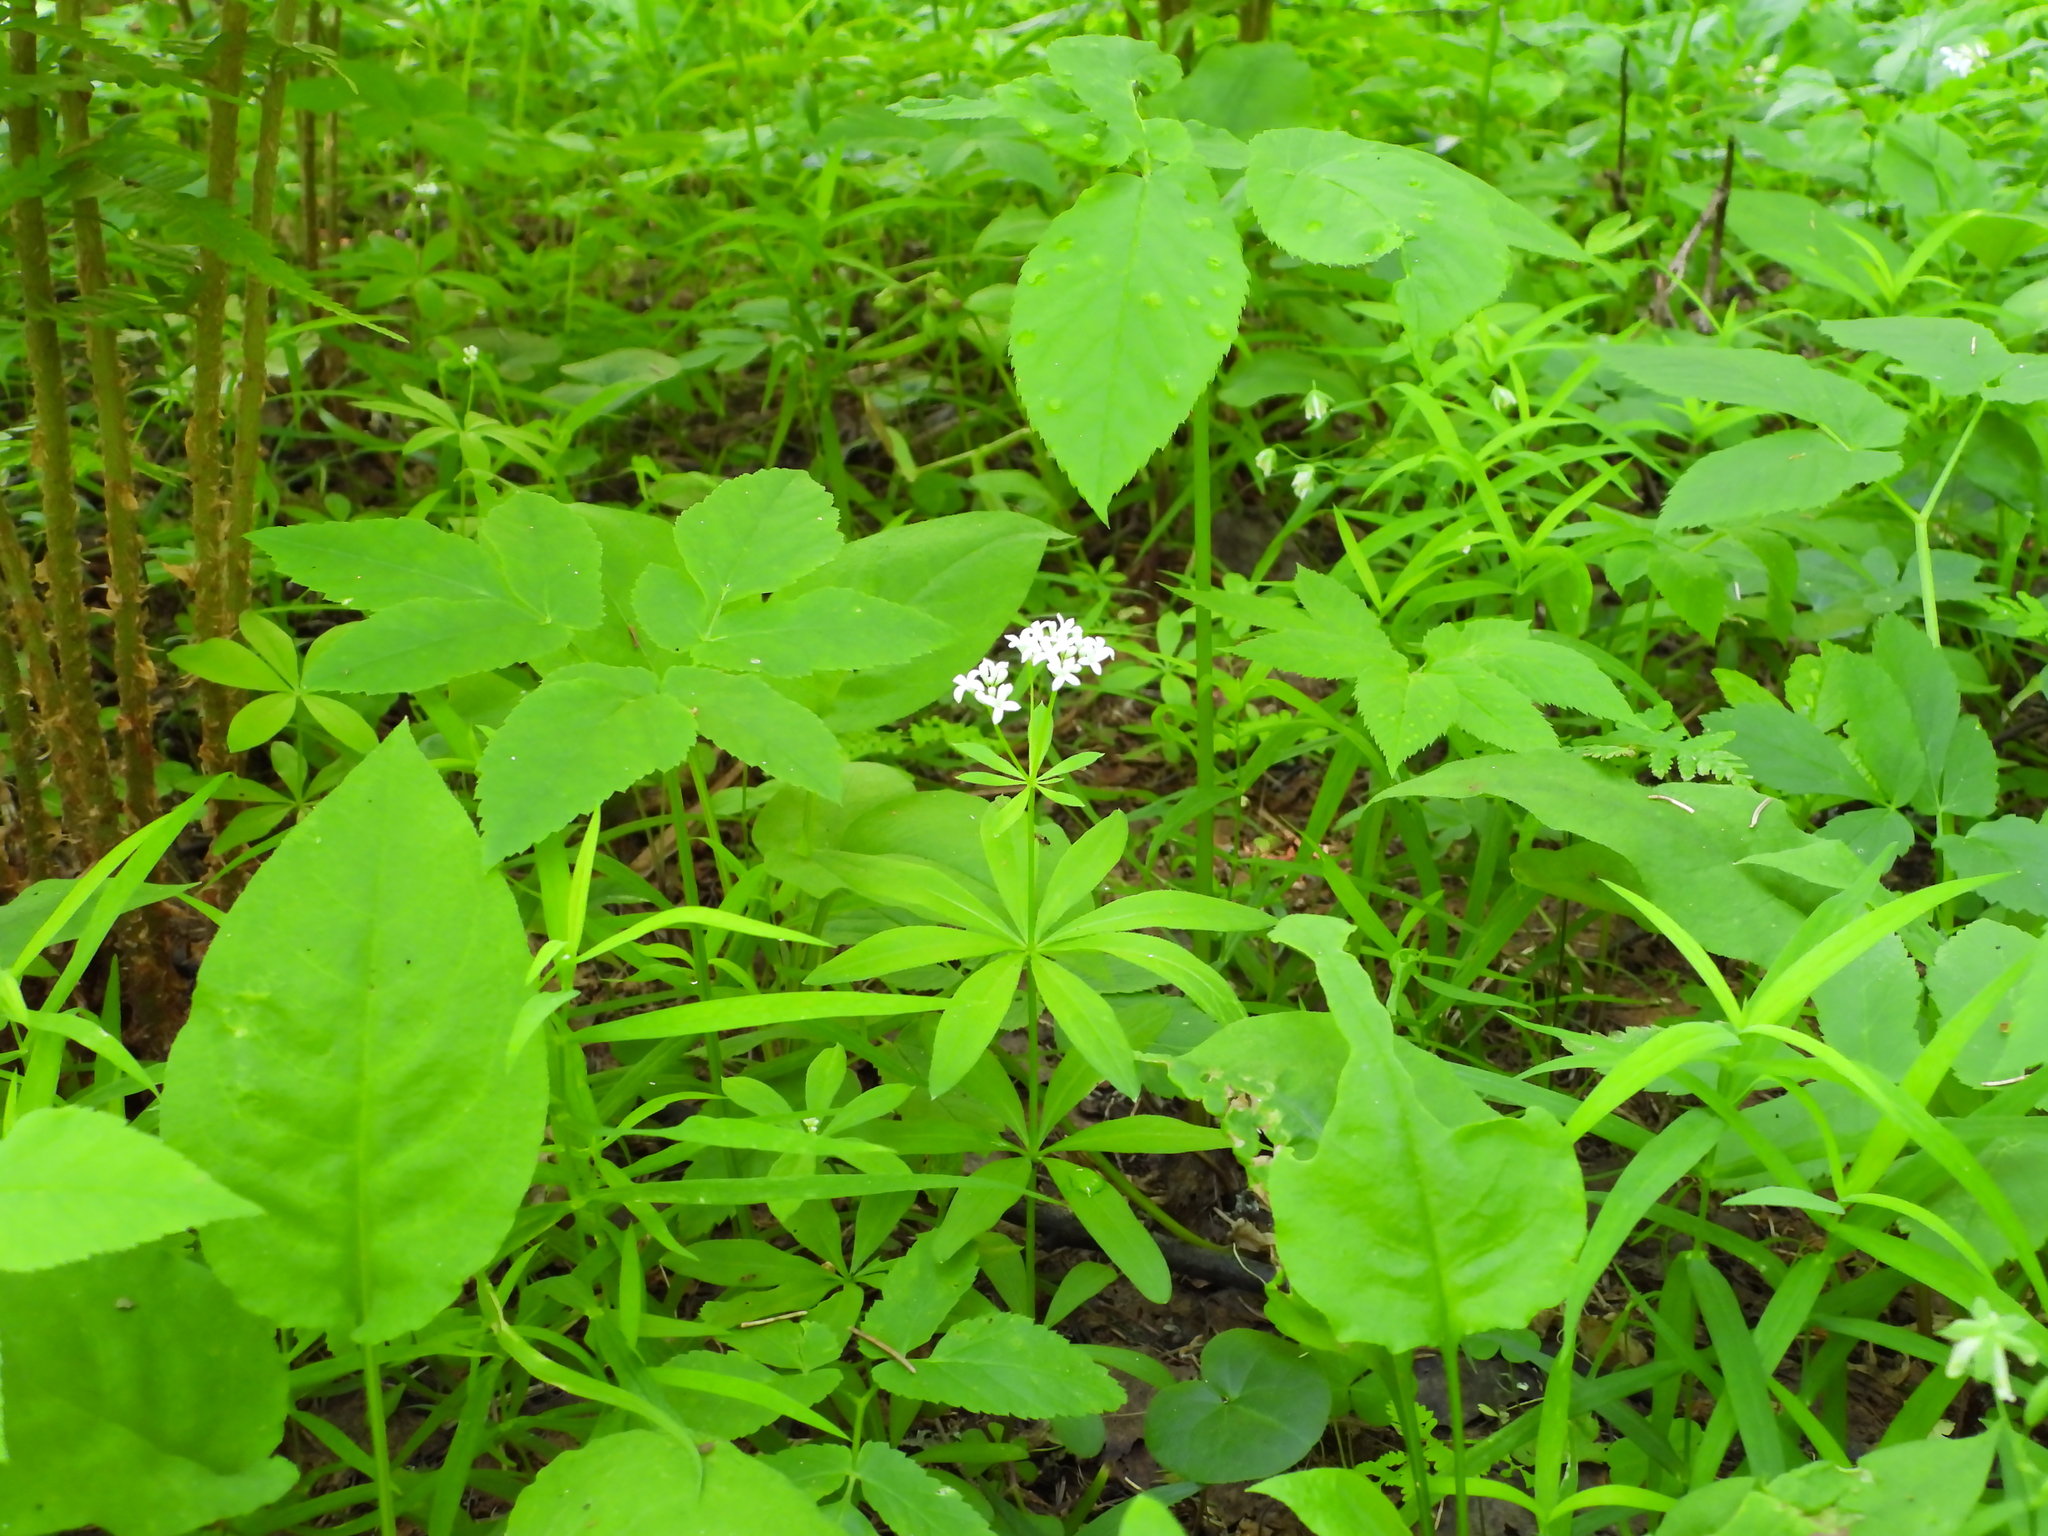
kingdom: Plantae
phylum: Tracheophyta
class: Magnoliopsida
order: Gentianales
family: Rubiaceae
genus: Galium
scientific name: Galium odoratum
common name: Sweet woodruff
